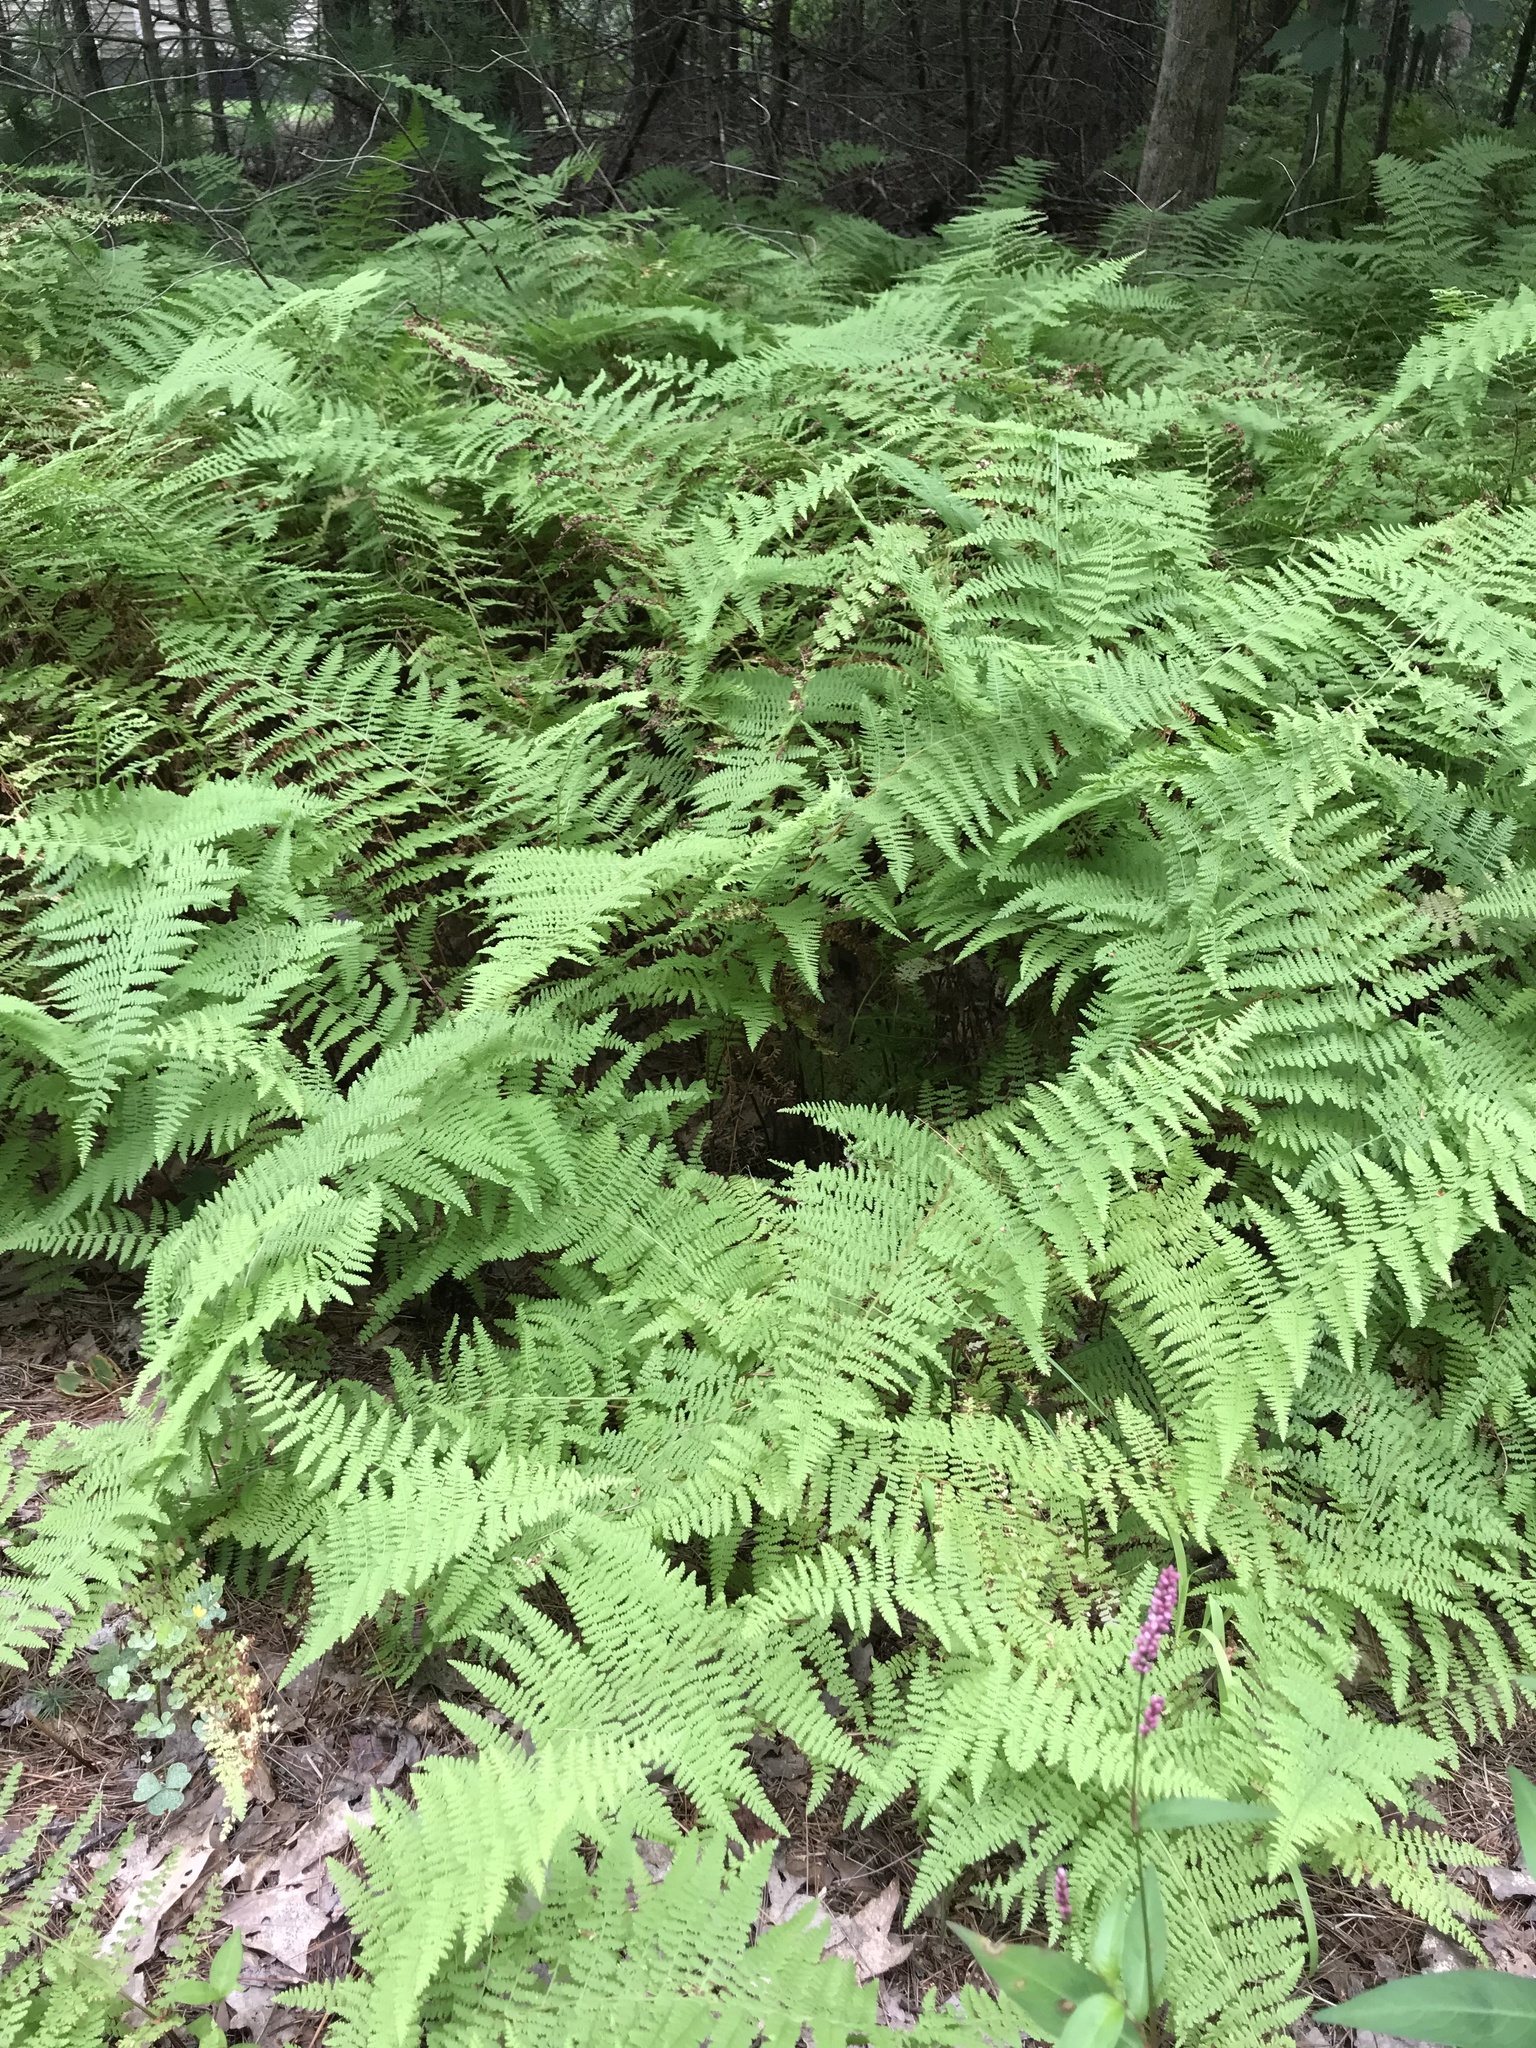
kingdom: Plantae
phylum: Tracheophyta
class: Polypodiopsida
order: Polypodiales
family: Dennstaedtiaceae
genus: Sitobolium
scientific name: Sitobolium punctilobum
